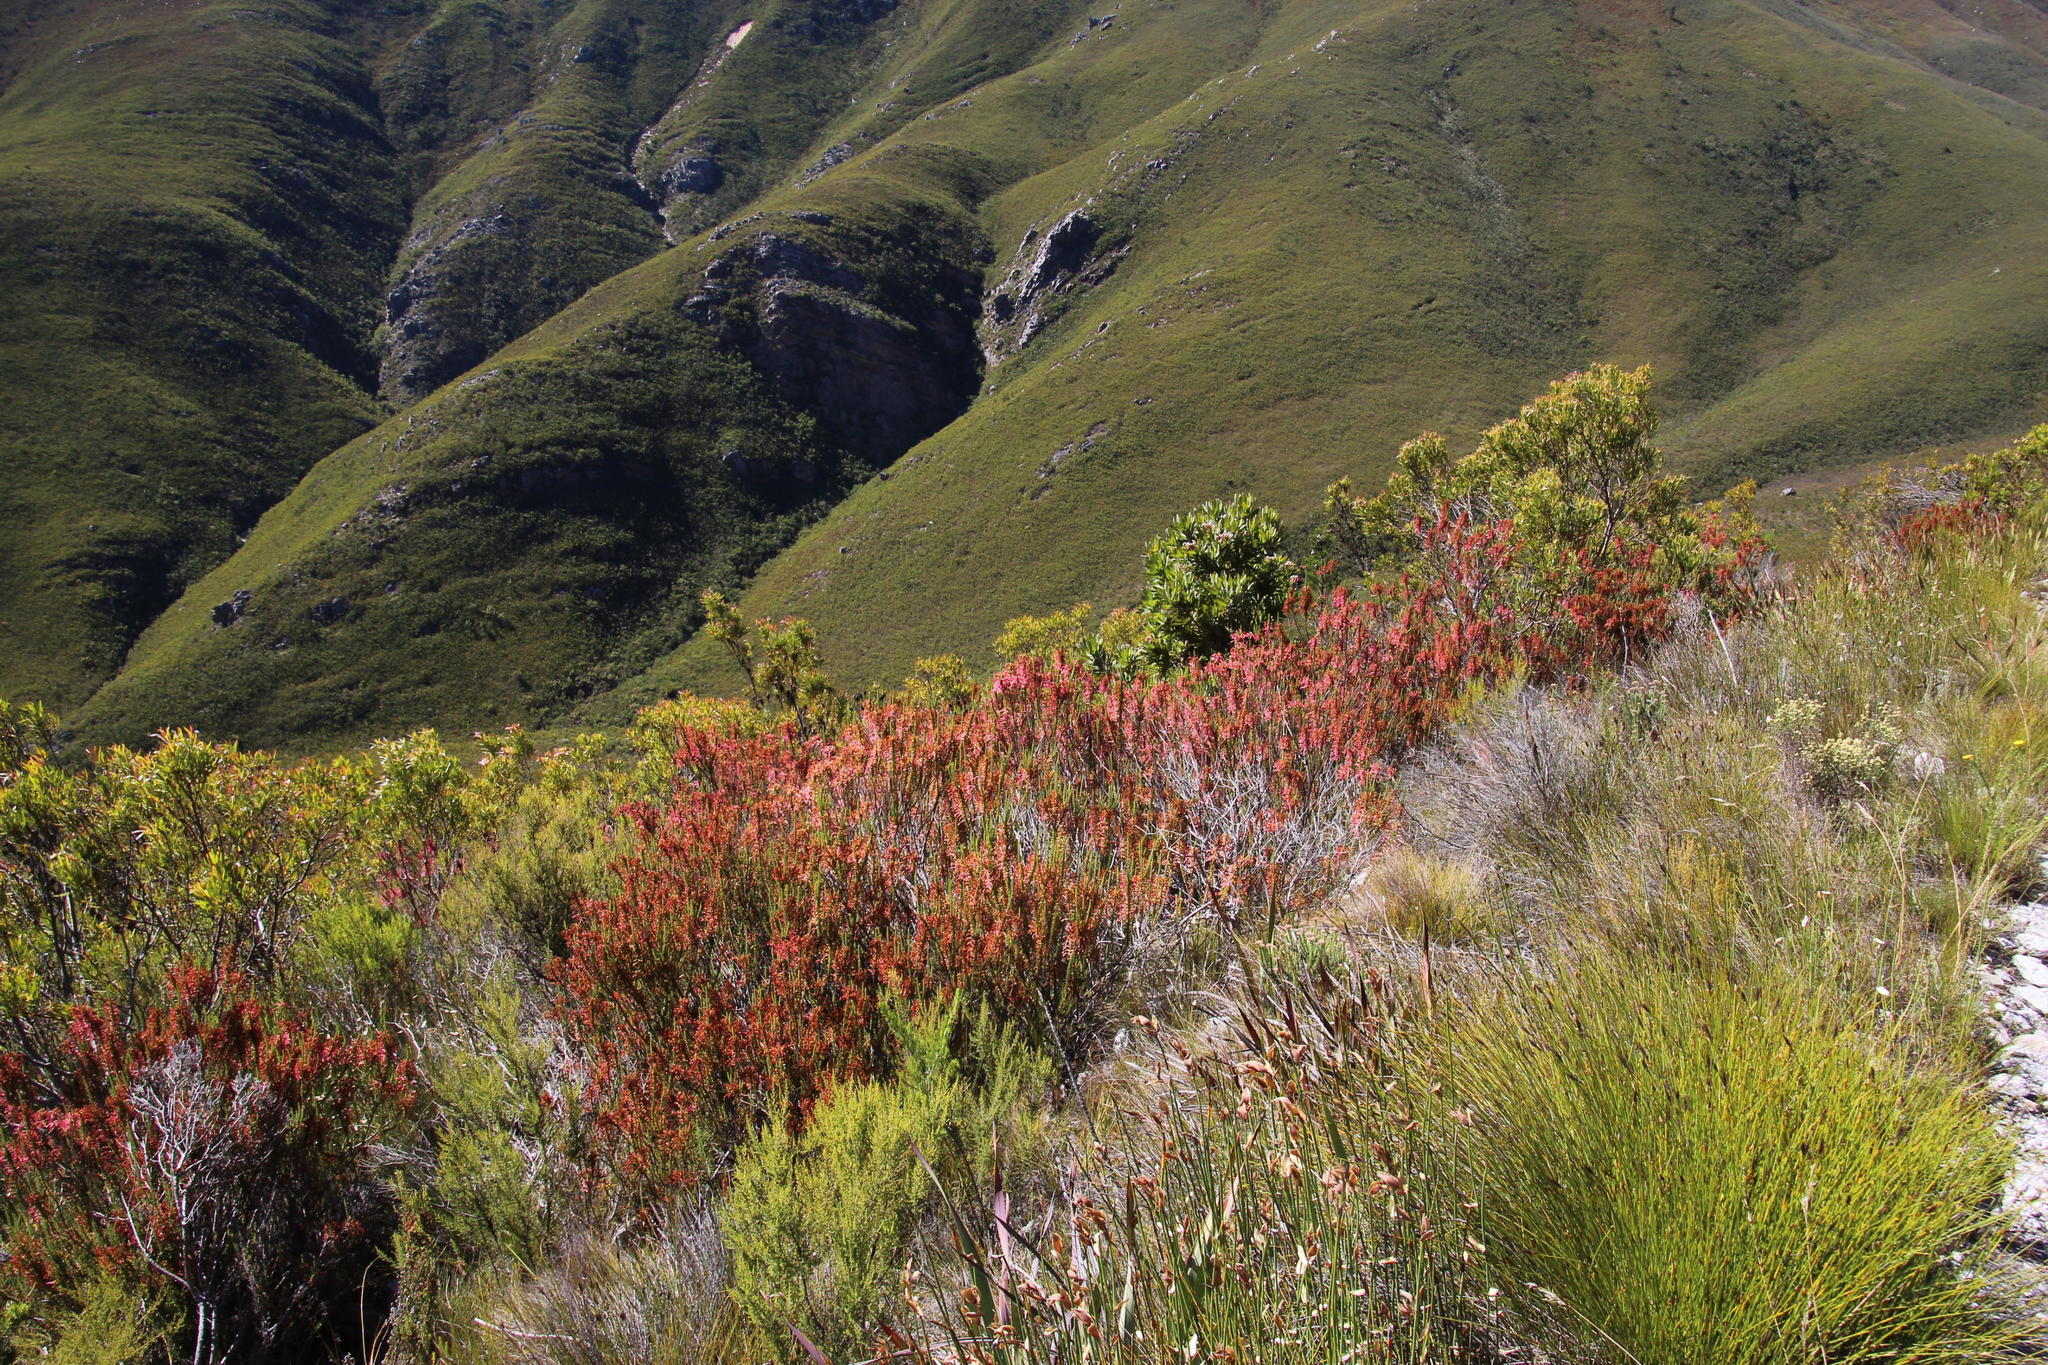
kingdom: Plantae
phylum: Tracheophyta
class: Magnoliopsida
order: Ericales
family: Ericaceae
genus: Erica
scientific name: Erica densifolia
